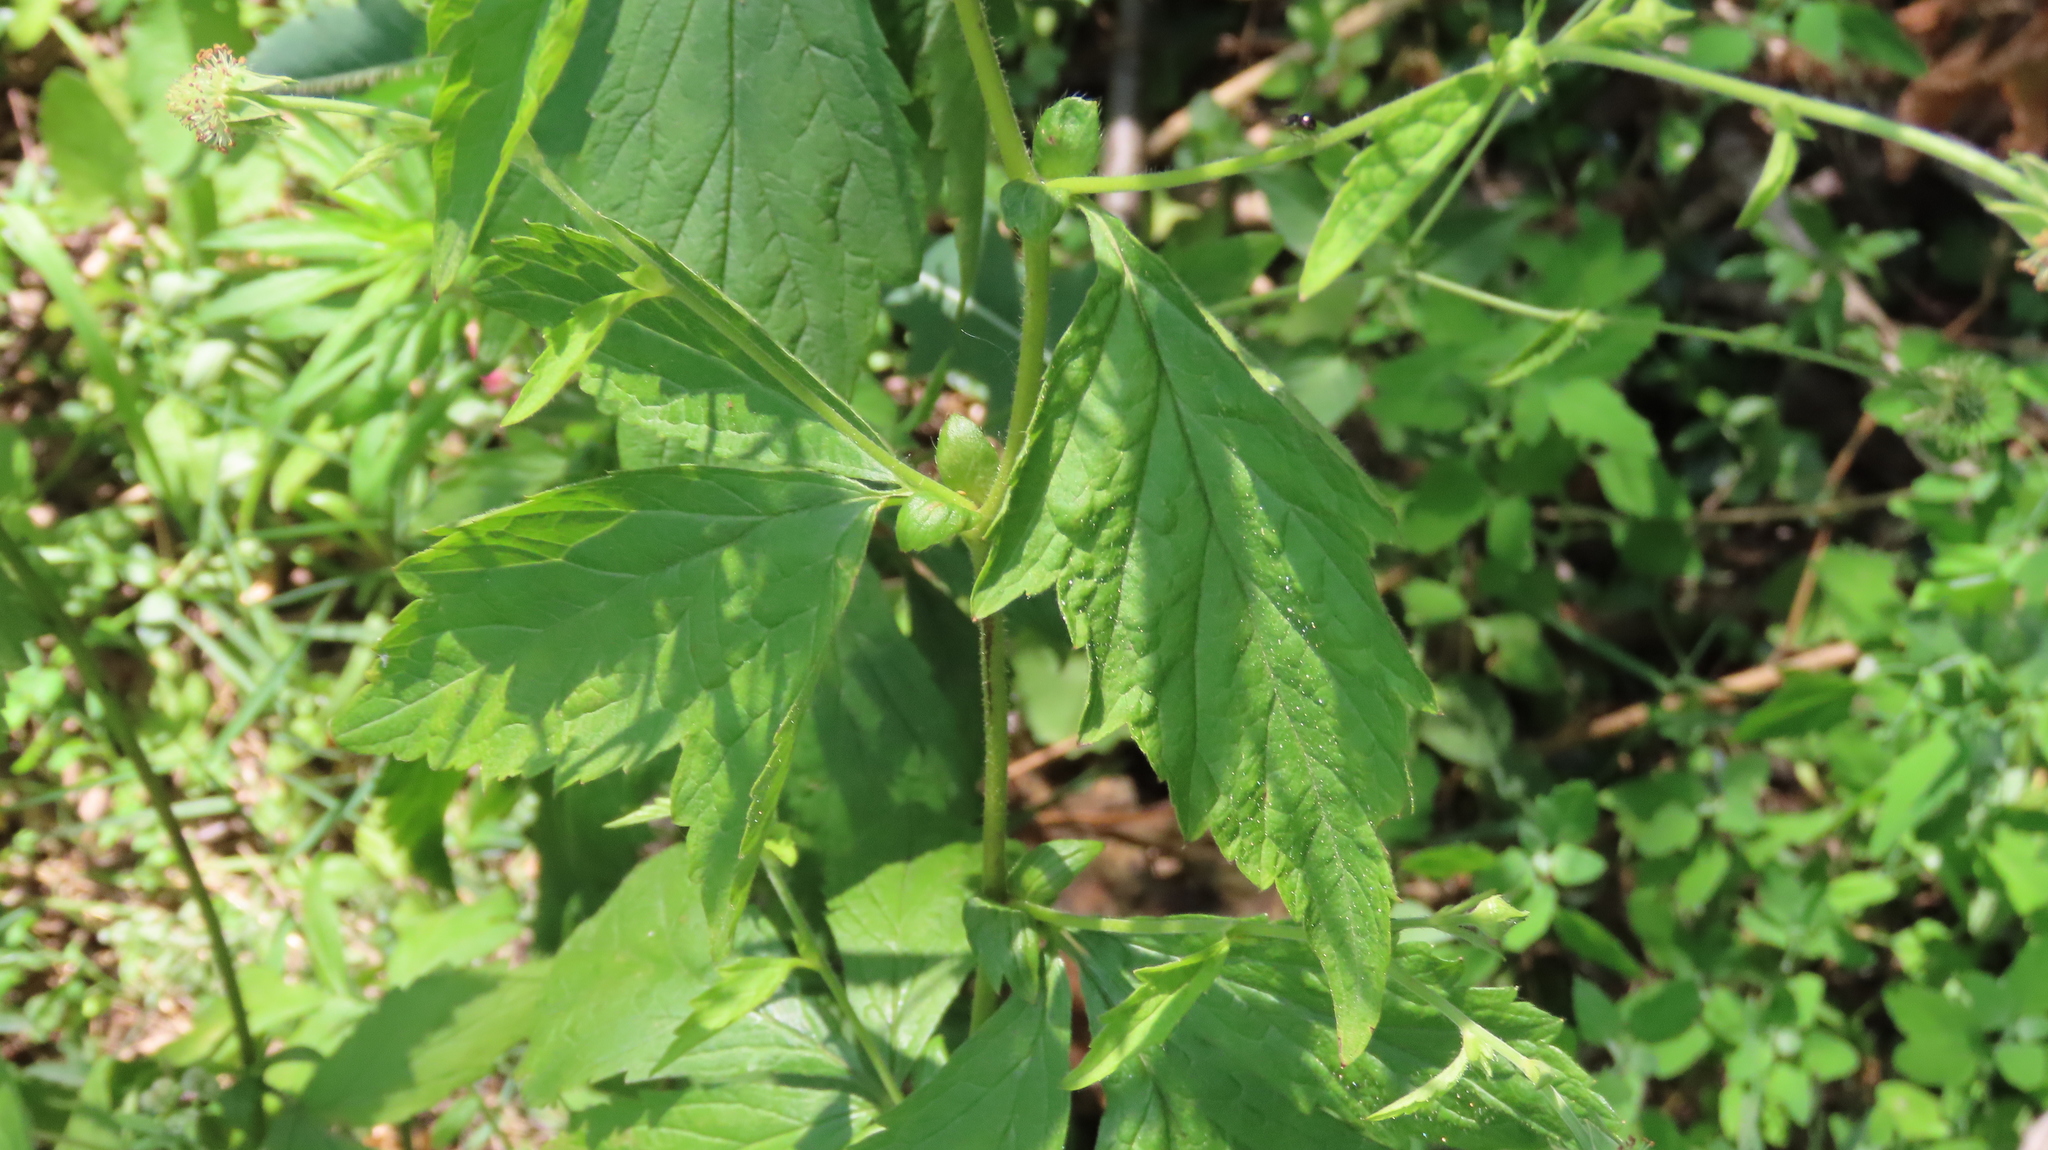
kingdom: Plantae
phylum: Tracheophyta
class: Magnoliopsida
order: Rosales
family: Rosaceae
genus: Geum
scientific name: Geum canadense
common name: White avens
